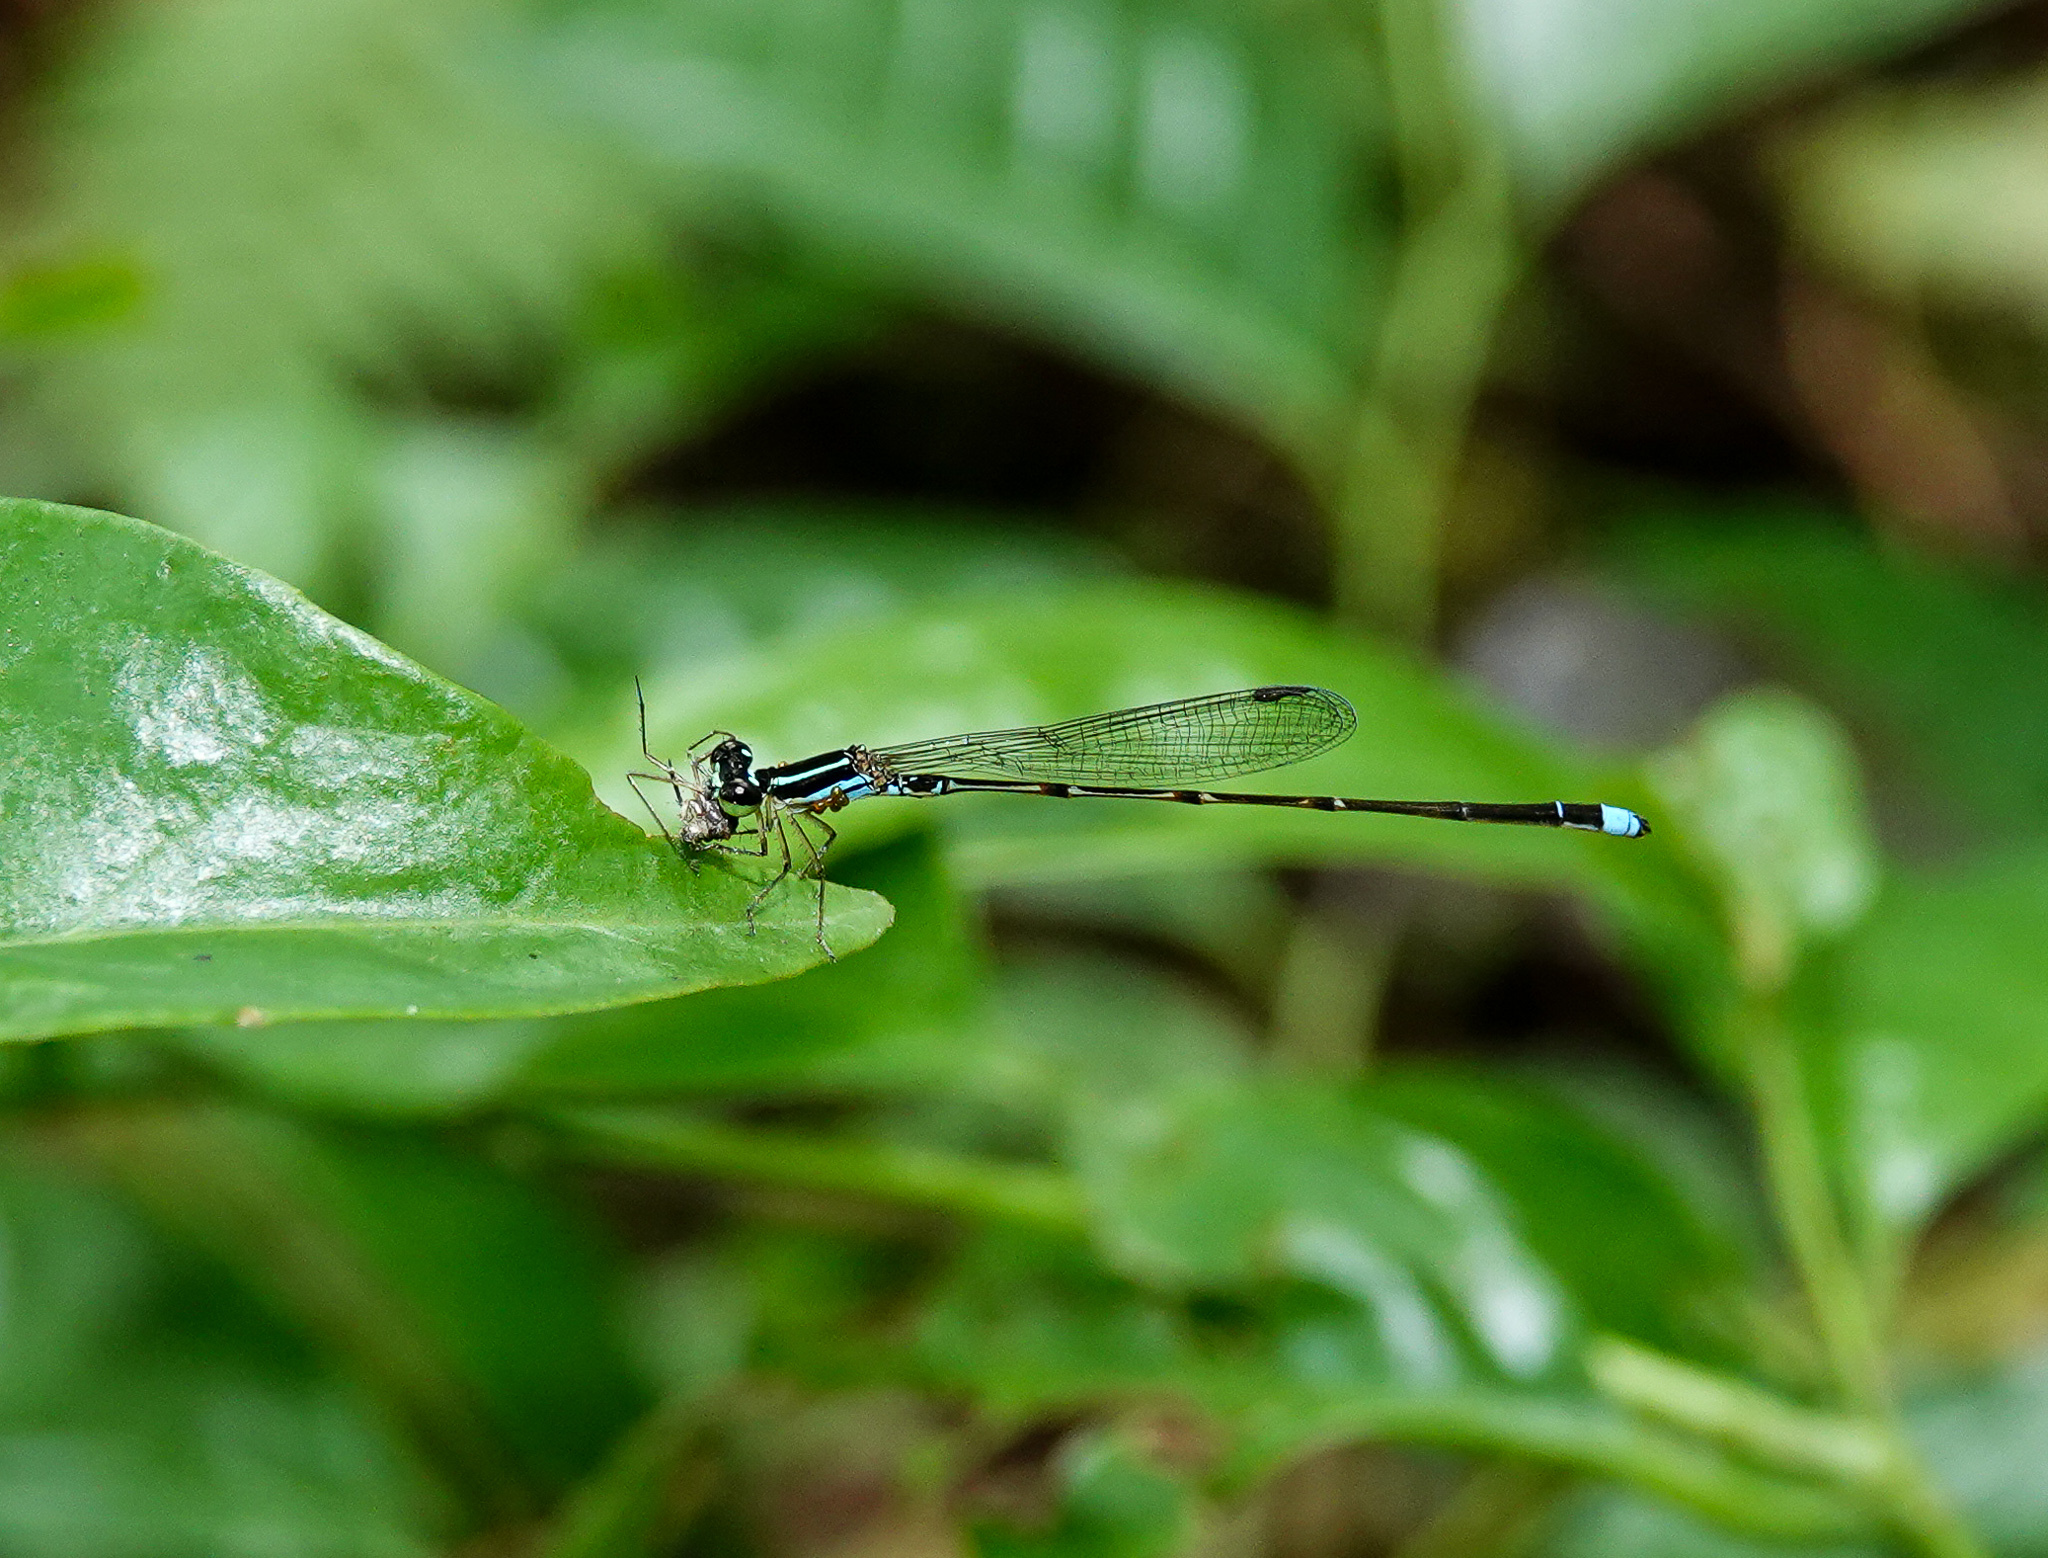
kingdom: Animalia
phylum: Arthropoda
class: Insecta
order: Odonata
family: Coenagrionidae
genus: Mortonagrion
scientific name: Mortonagrion aborense
